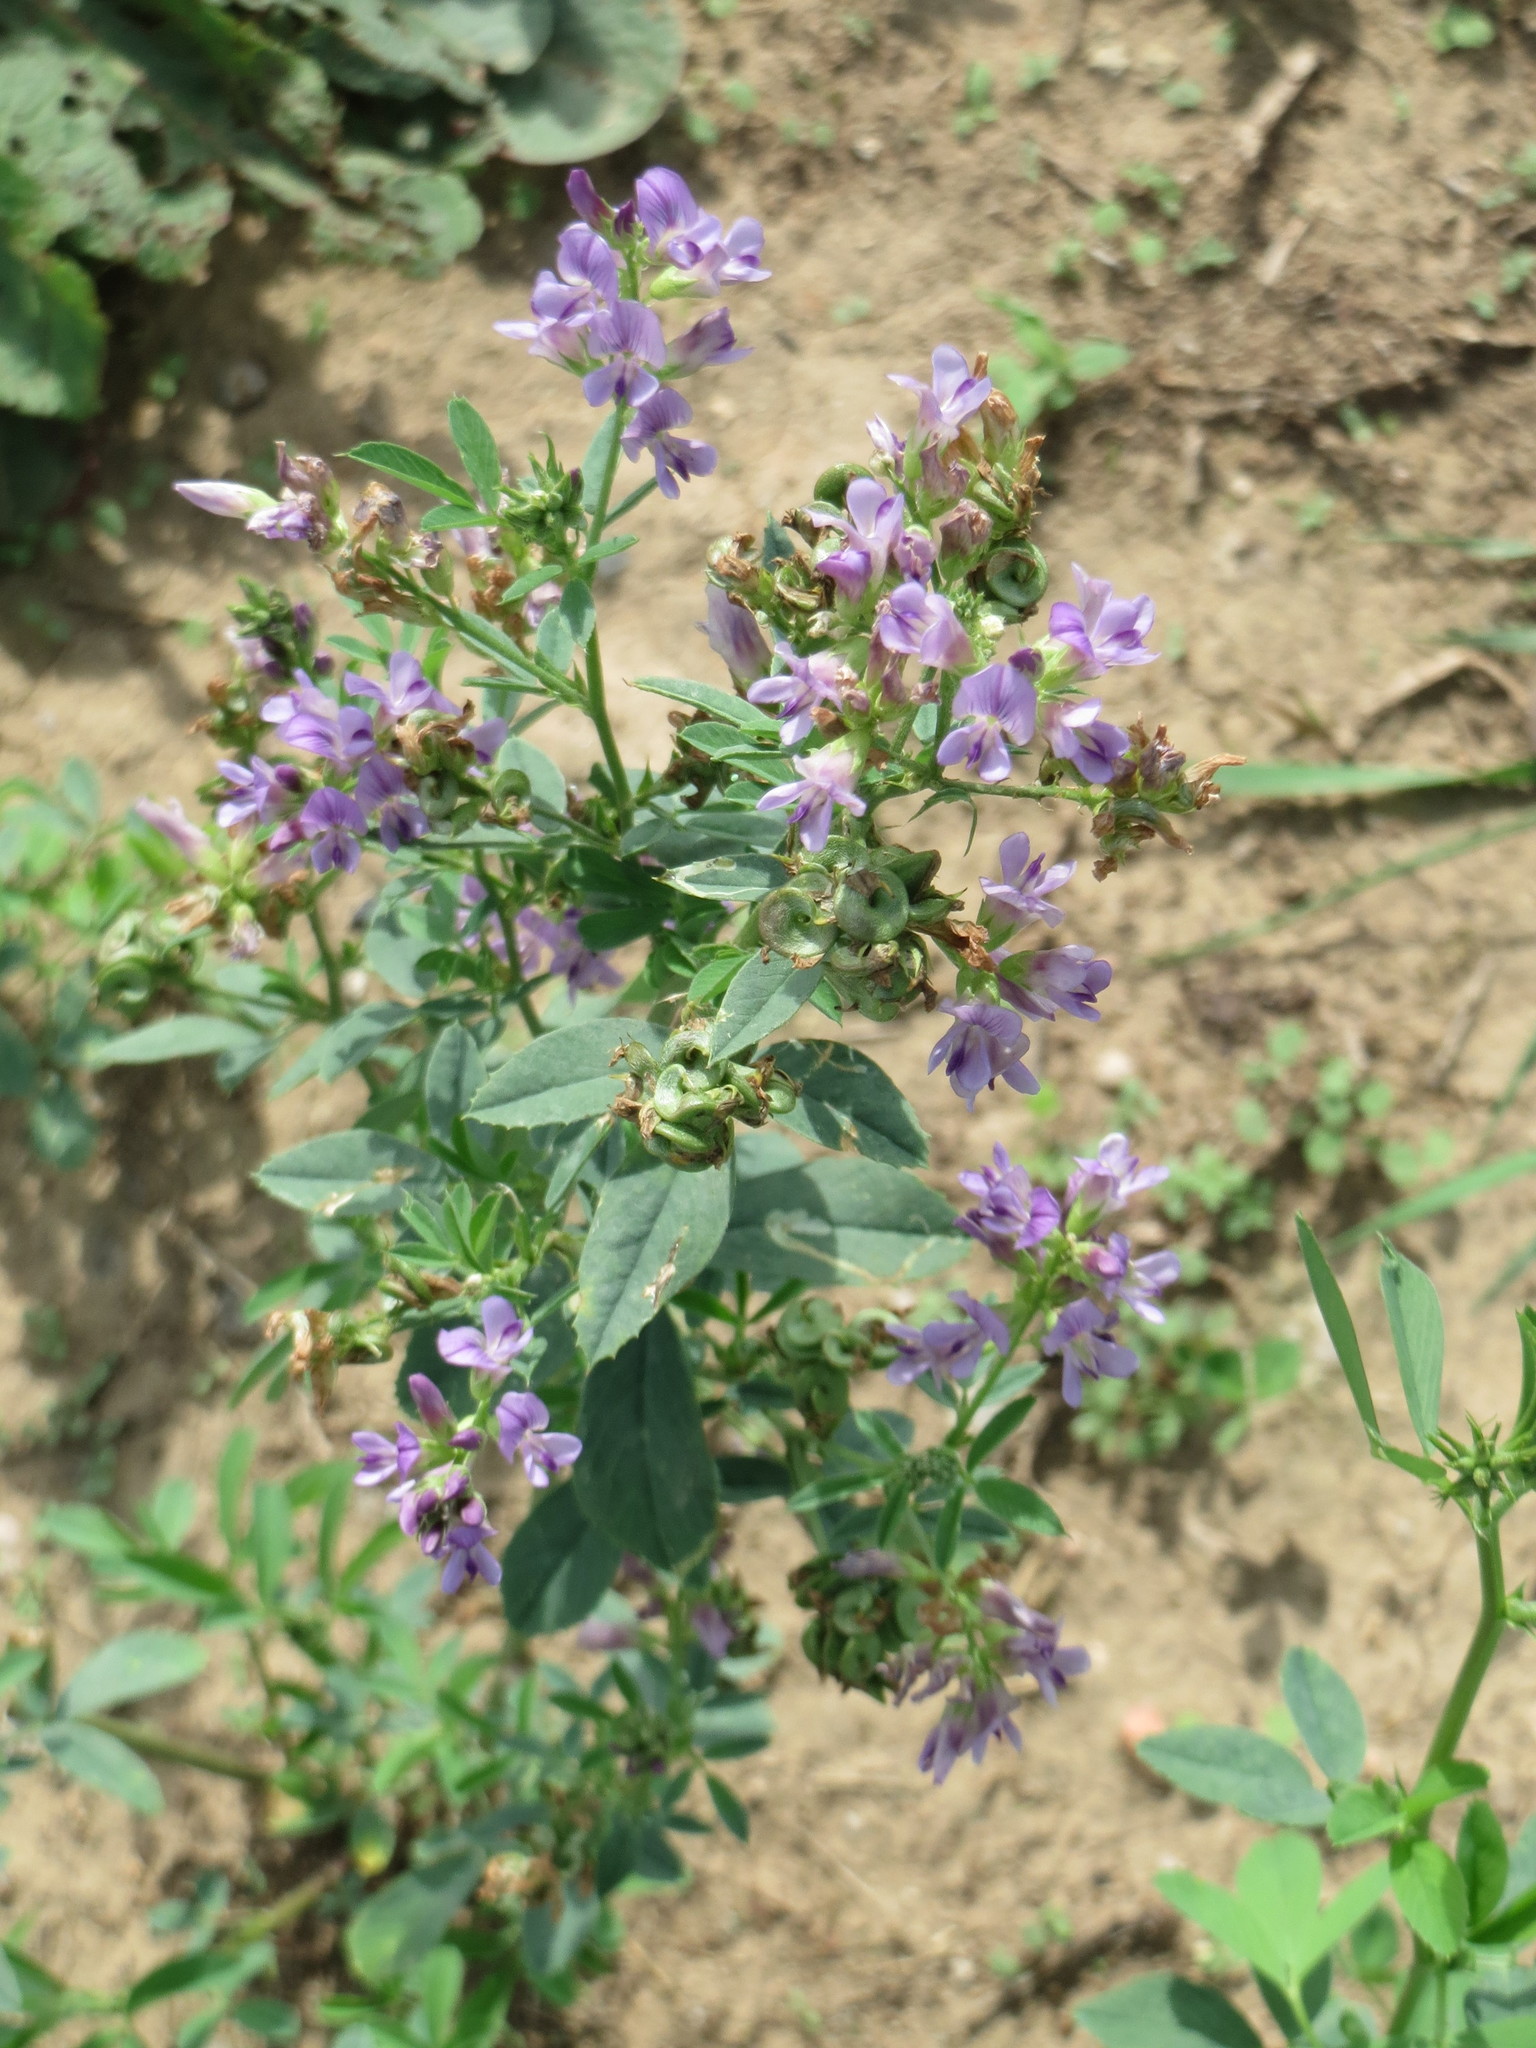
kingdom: Plantae
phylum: Tracheophyta
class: Magnoliopsida
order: Fabales
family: Fabaceae
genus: Medicago
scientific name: Medicago sativa
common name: Alfalfa
